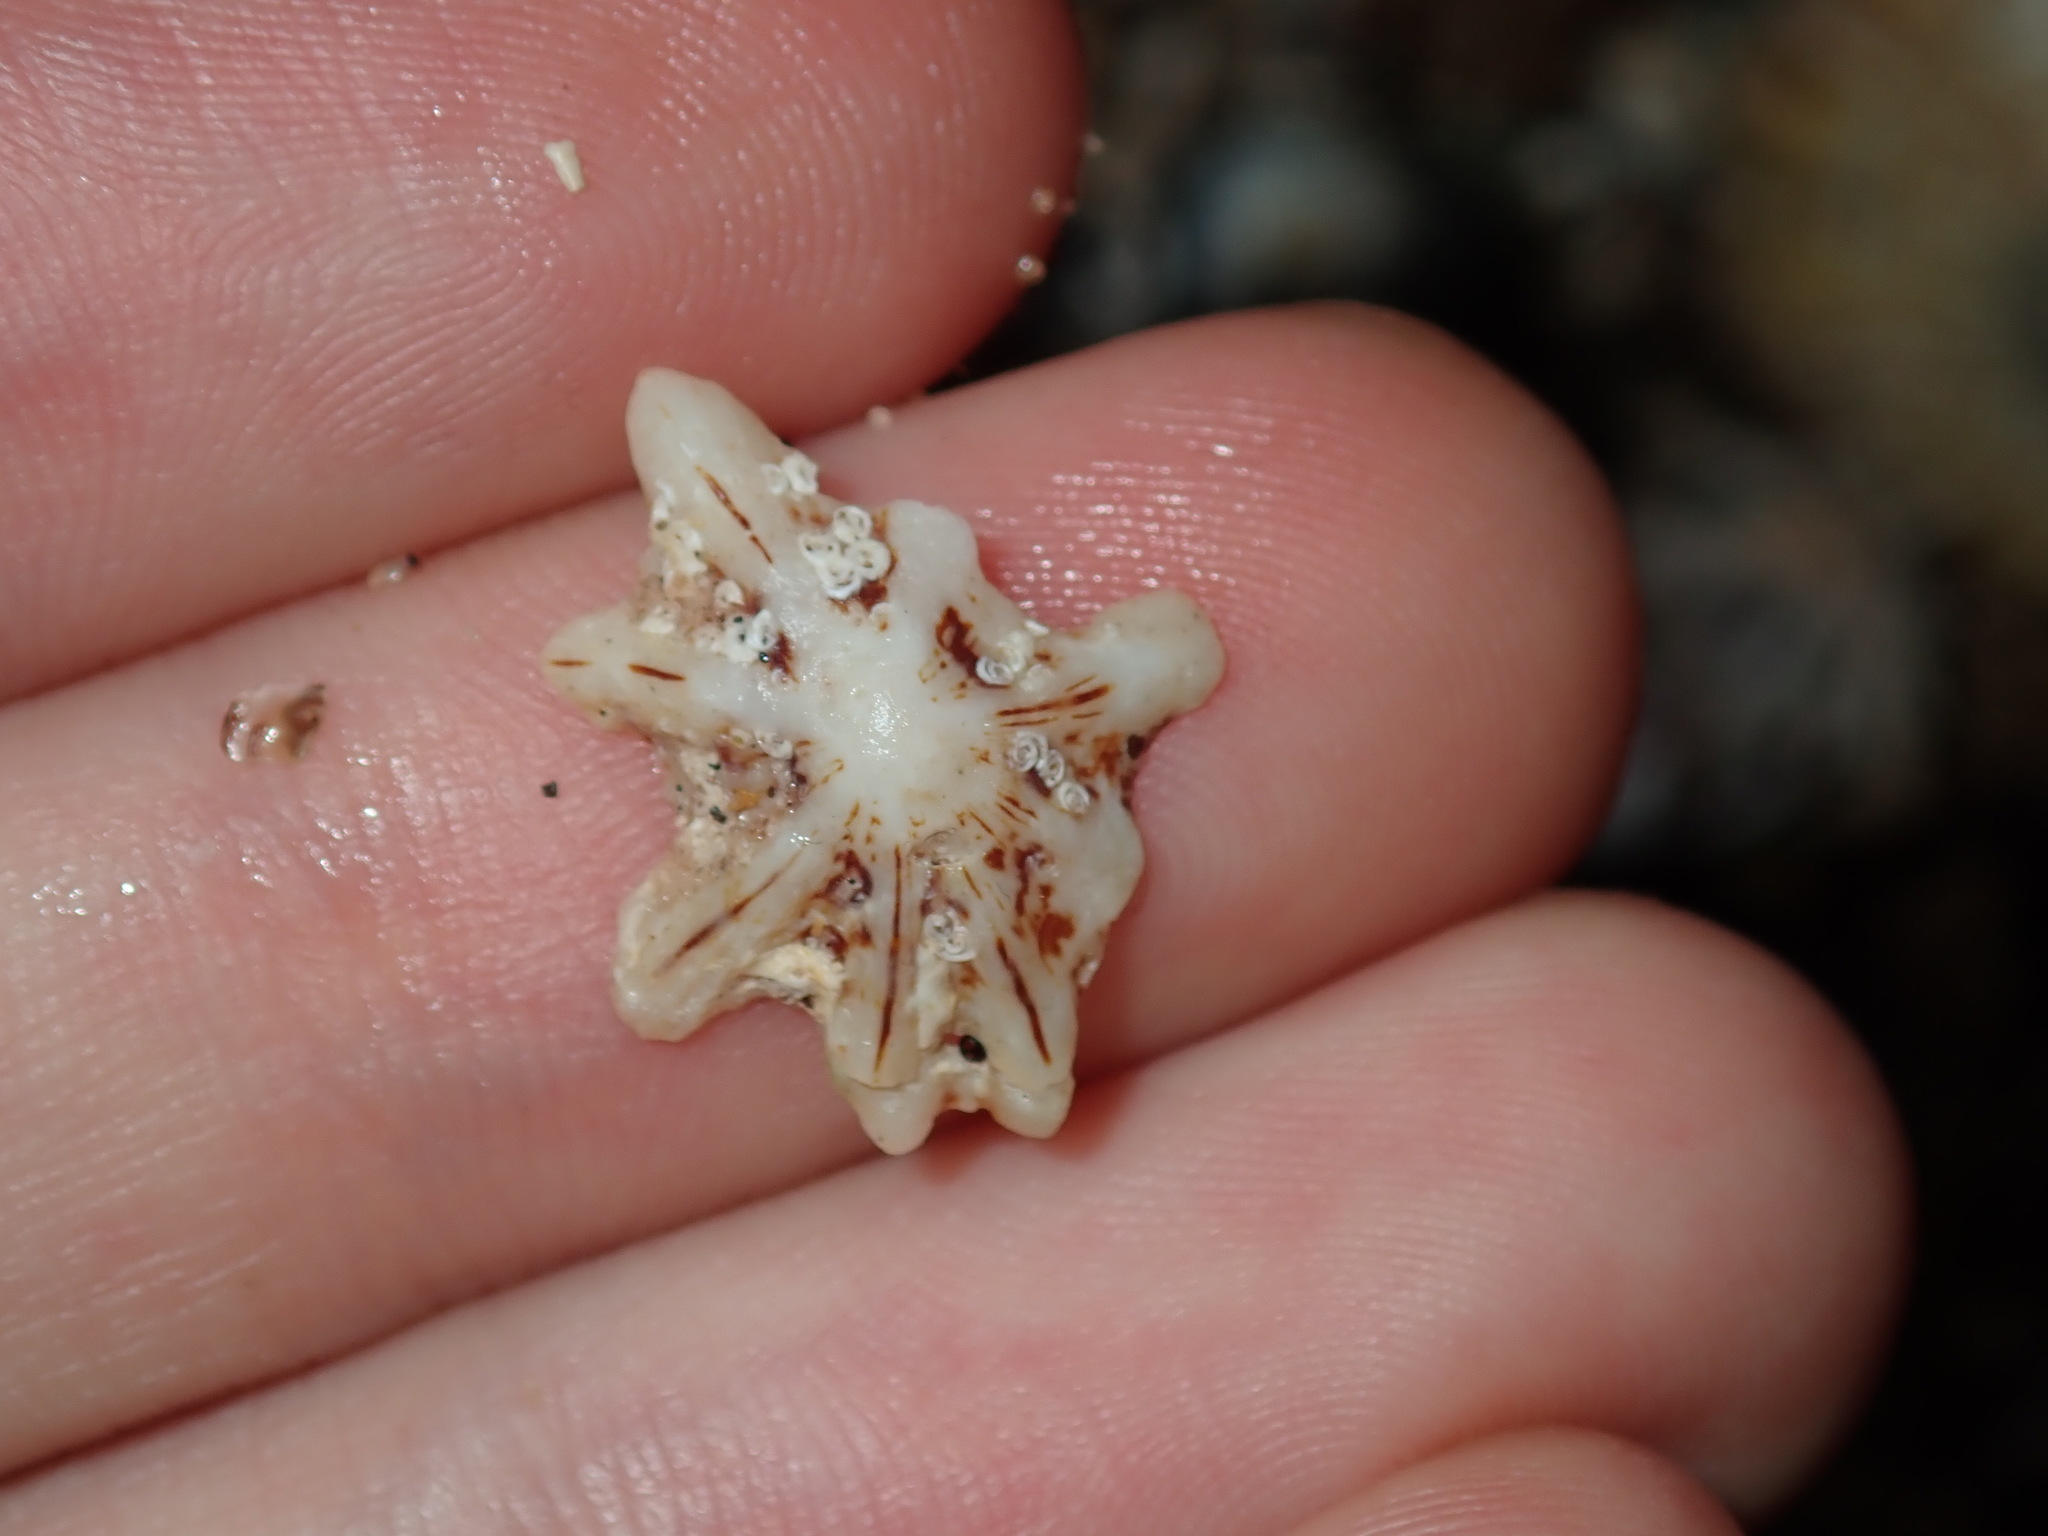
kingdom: Animalia
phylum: Mollusca
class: Gastropoda
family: Patellidae
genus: Scutellastra
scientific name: Scutellastra chapmani
